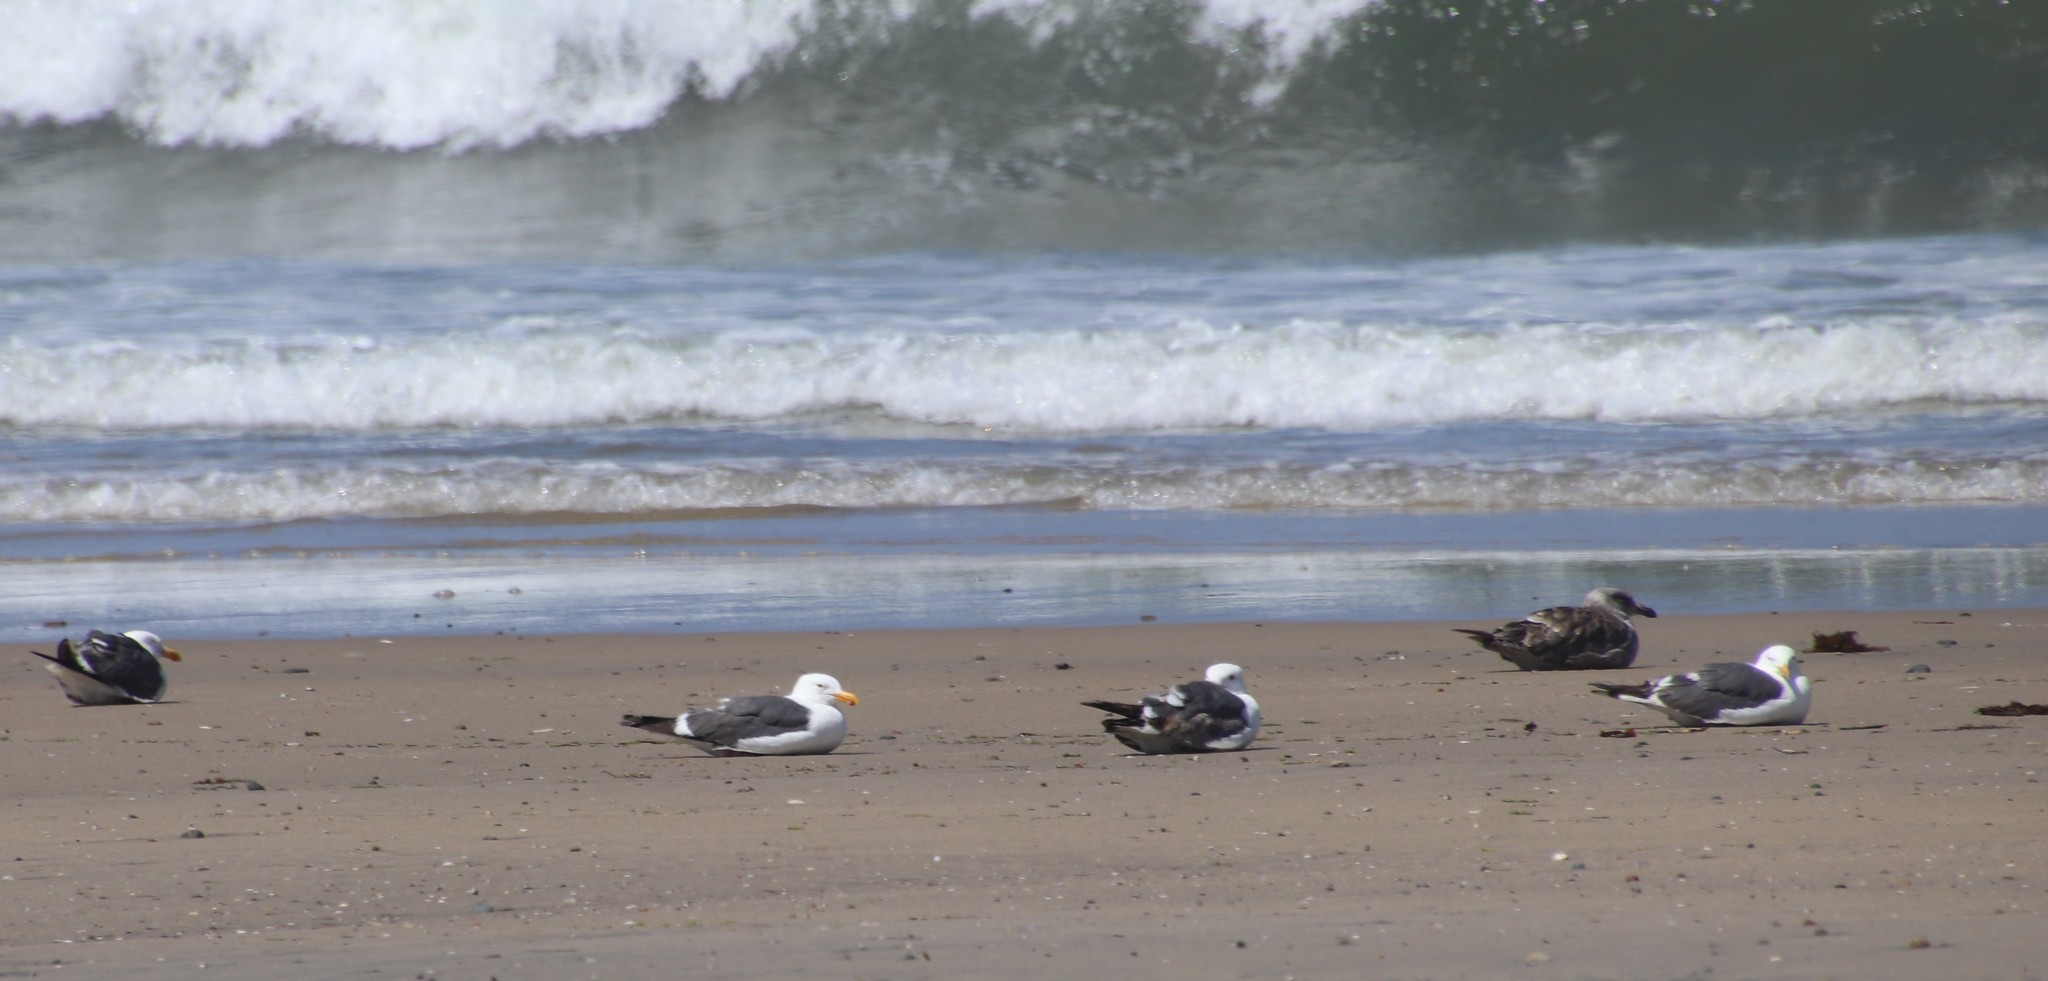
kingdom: Animalia
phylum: Chordata
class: Aves
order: Charadriiformes
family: Laridae
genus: Larus
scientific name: Larus occidentalis
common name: Western gull
